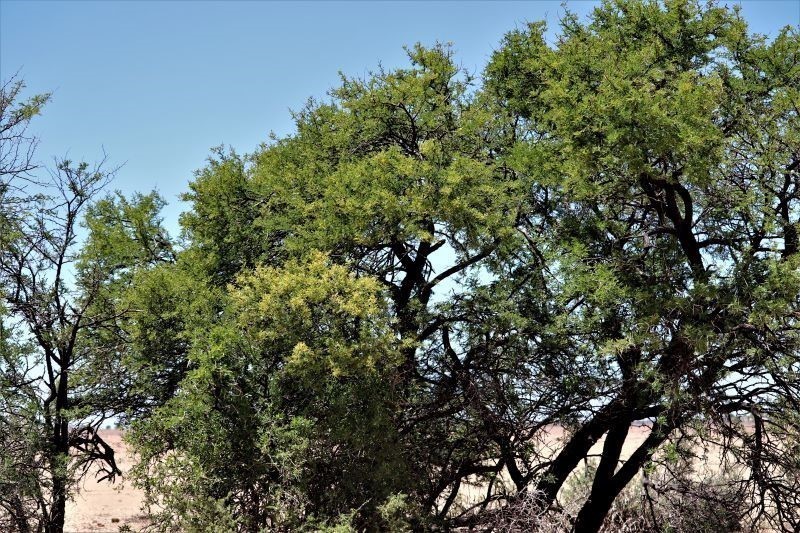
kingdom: Plantae
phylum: Tracheophyta
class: Magnoliopsida
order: Fabales
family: Fabaceae
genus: Vachellia
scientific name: Vachellia karroo
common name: Sweet thorn
